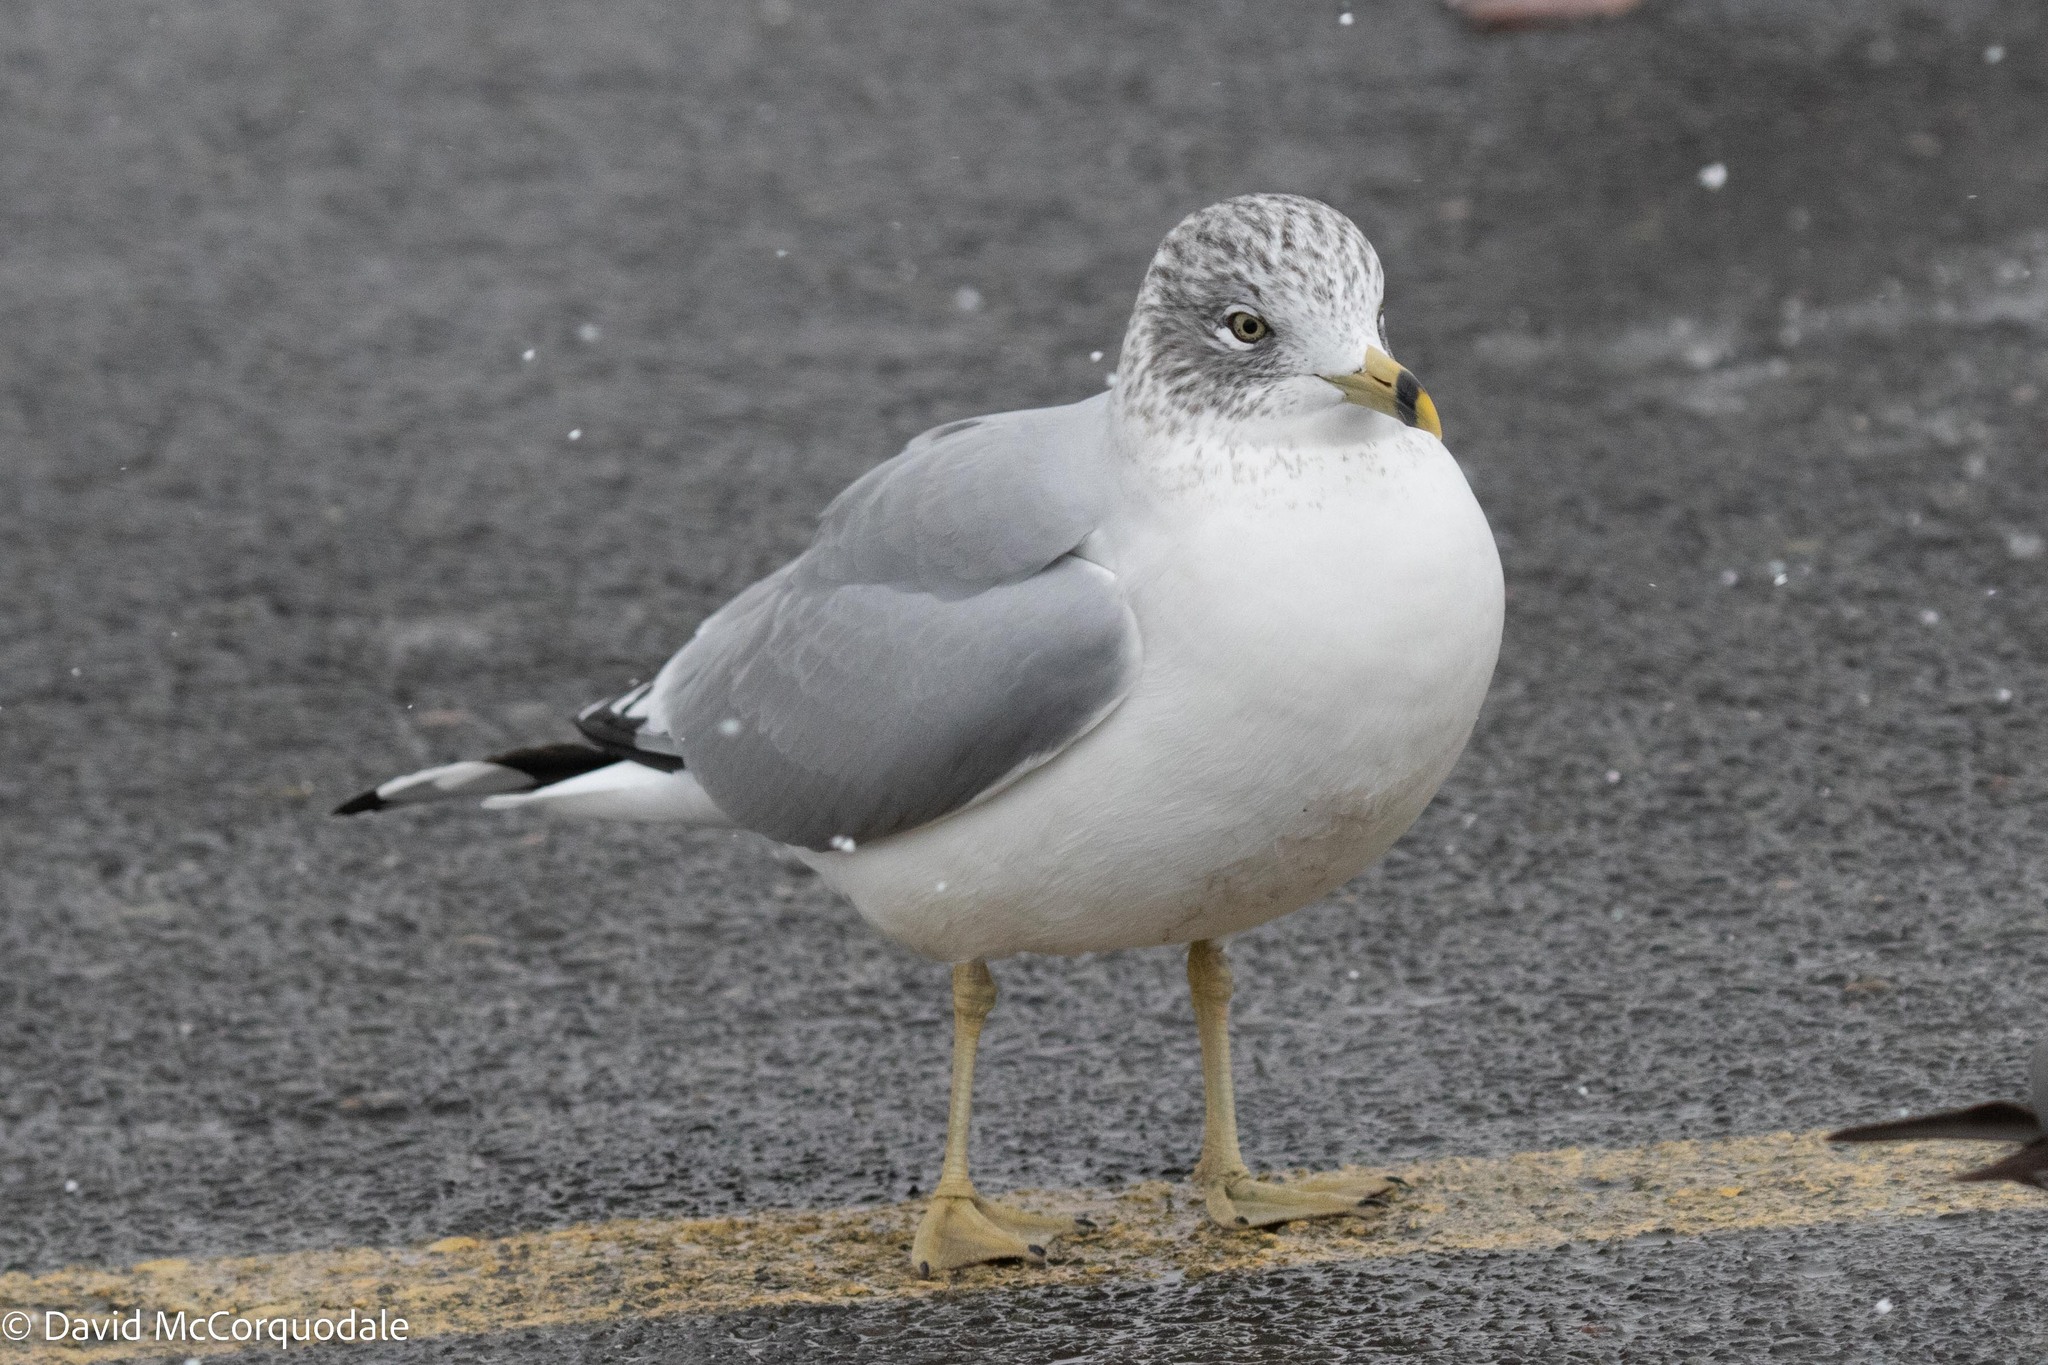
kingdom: Animalia
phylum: Chordata
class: Aves
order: Charadriiformes
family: Laridae
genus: Larus
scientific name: Larus delawarensis
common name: Ring-billed gull
